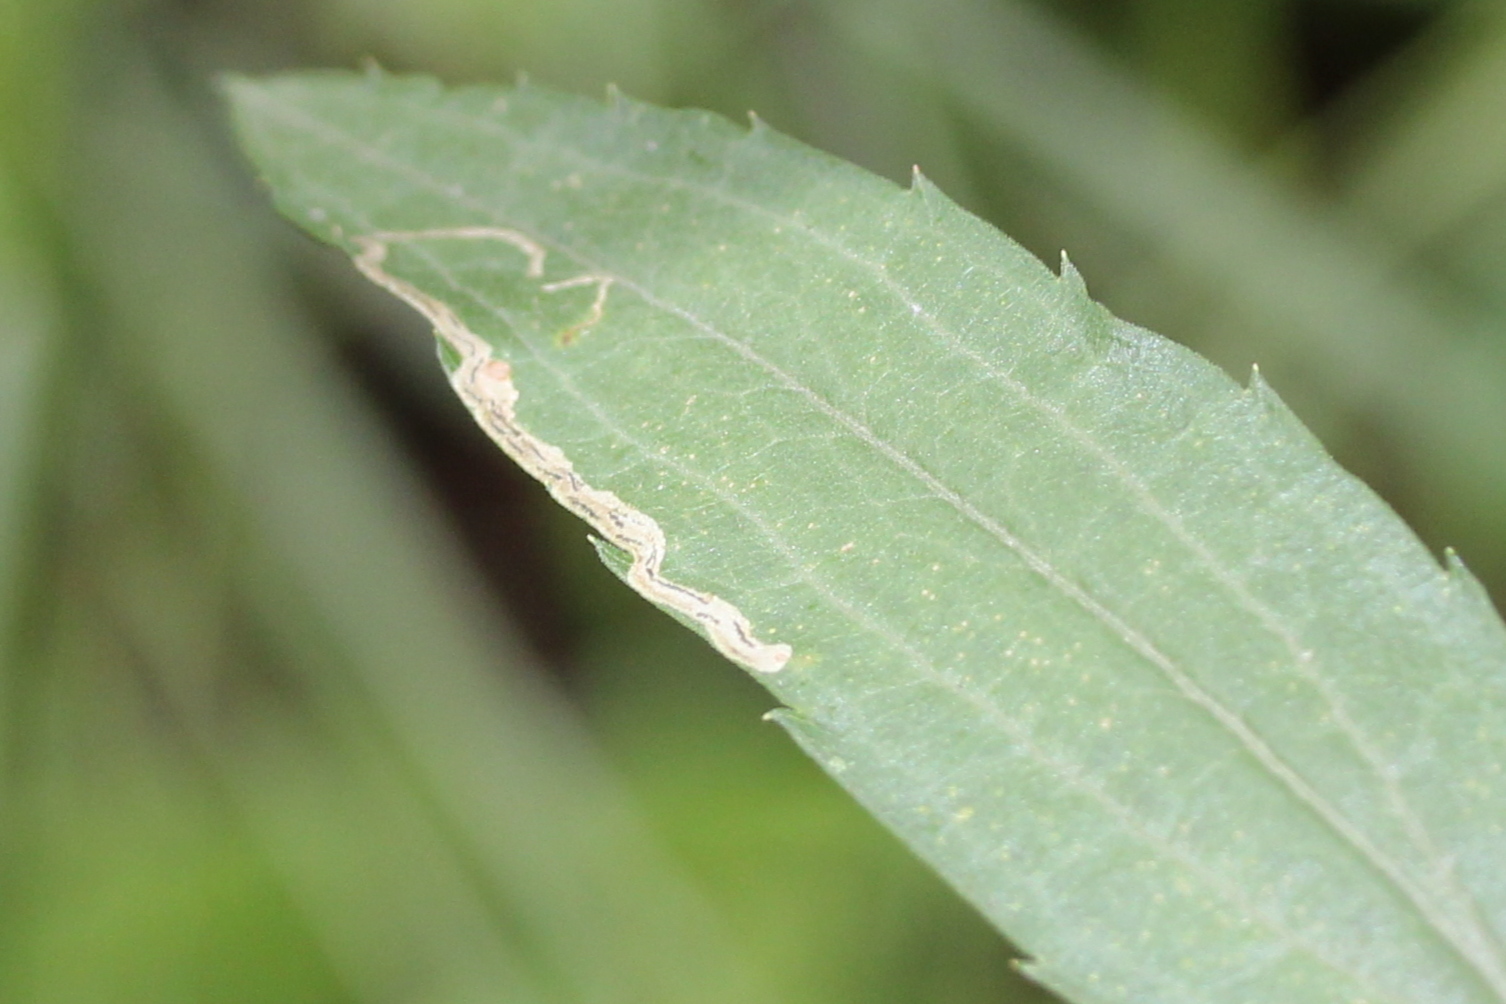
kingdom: Animalia
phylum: Arthropoda
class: Insecta
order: Diptera
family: Agromyzidae
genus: Liriomyza
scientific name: Liriomyza eupatorii
